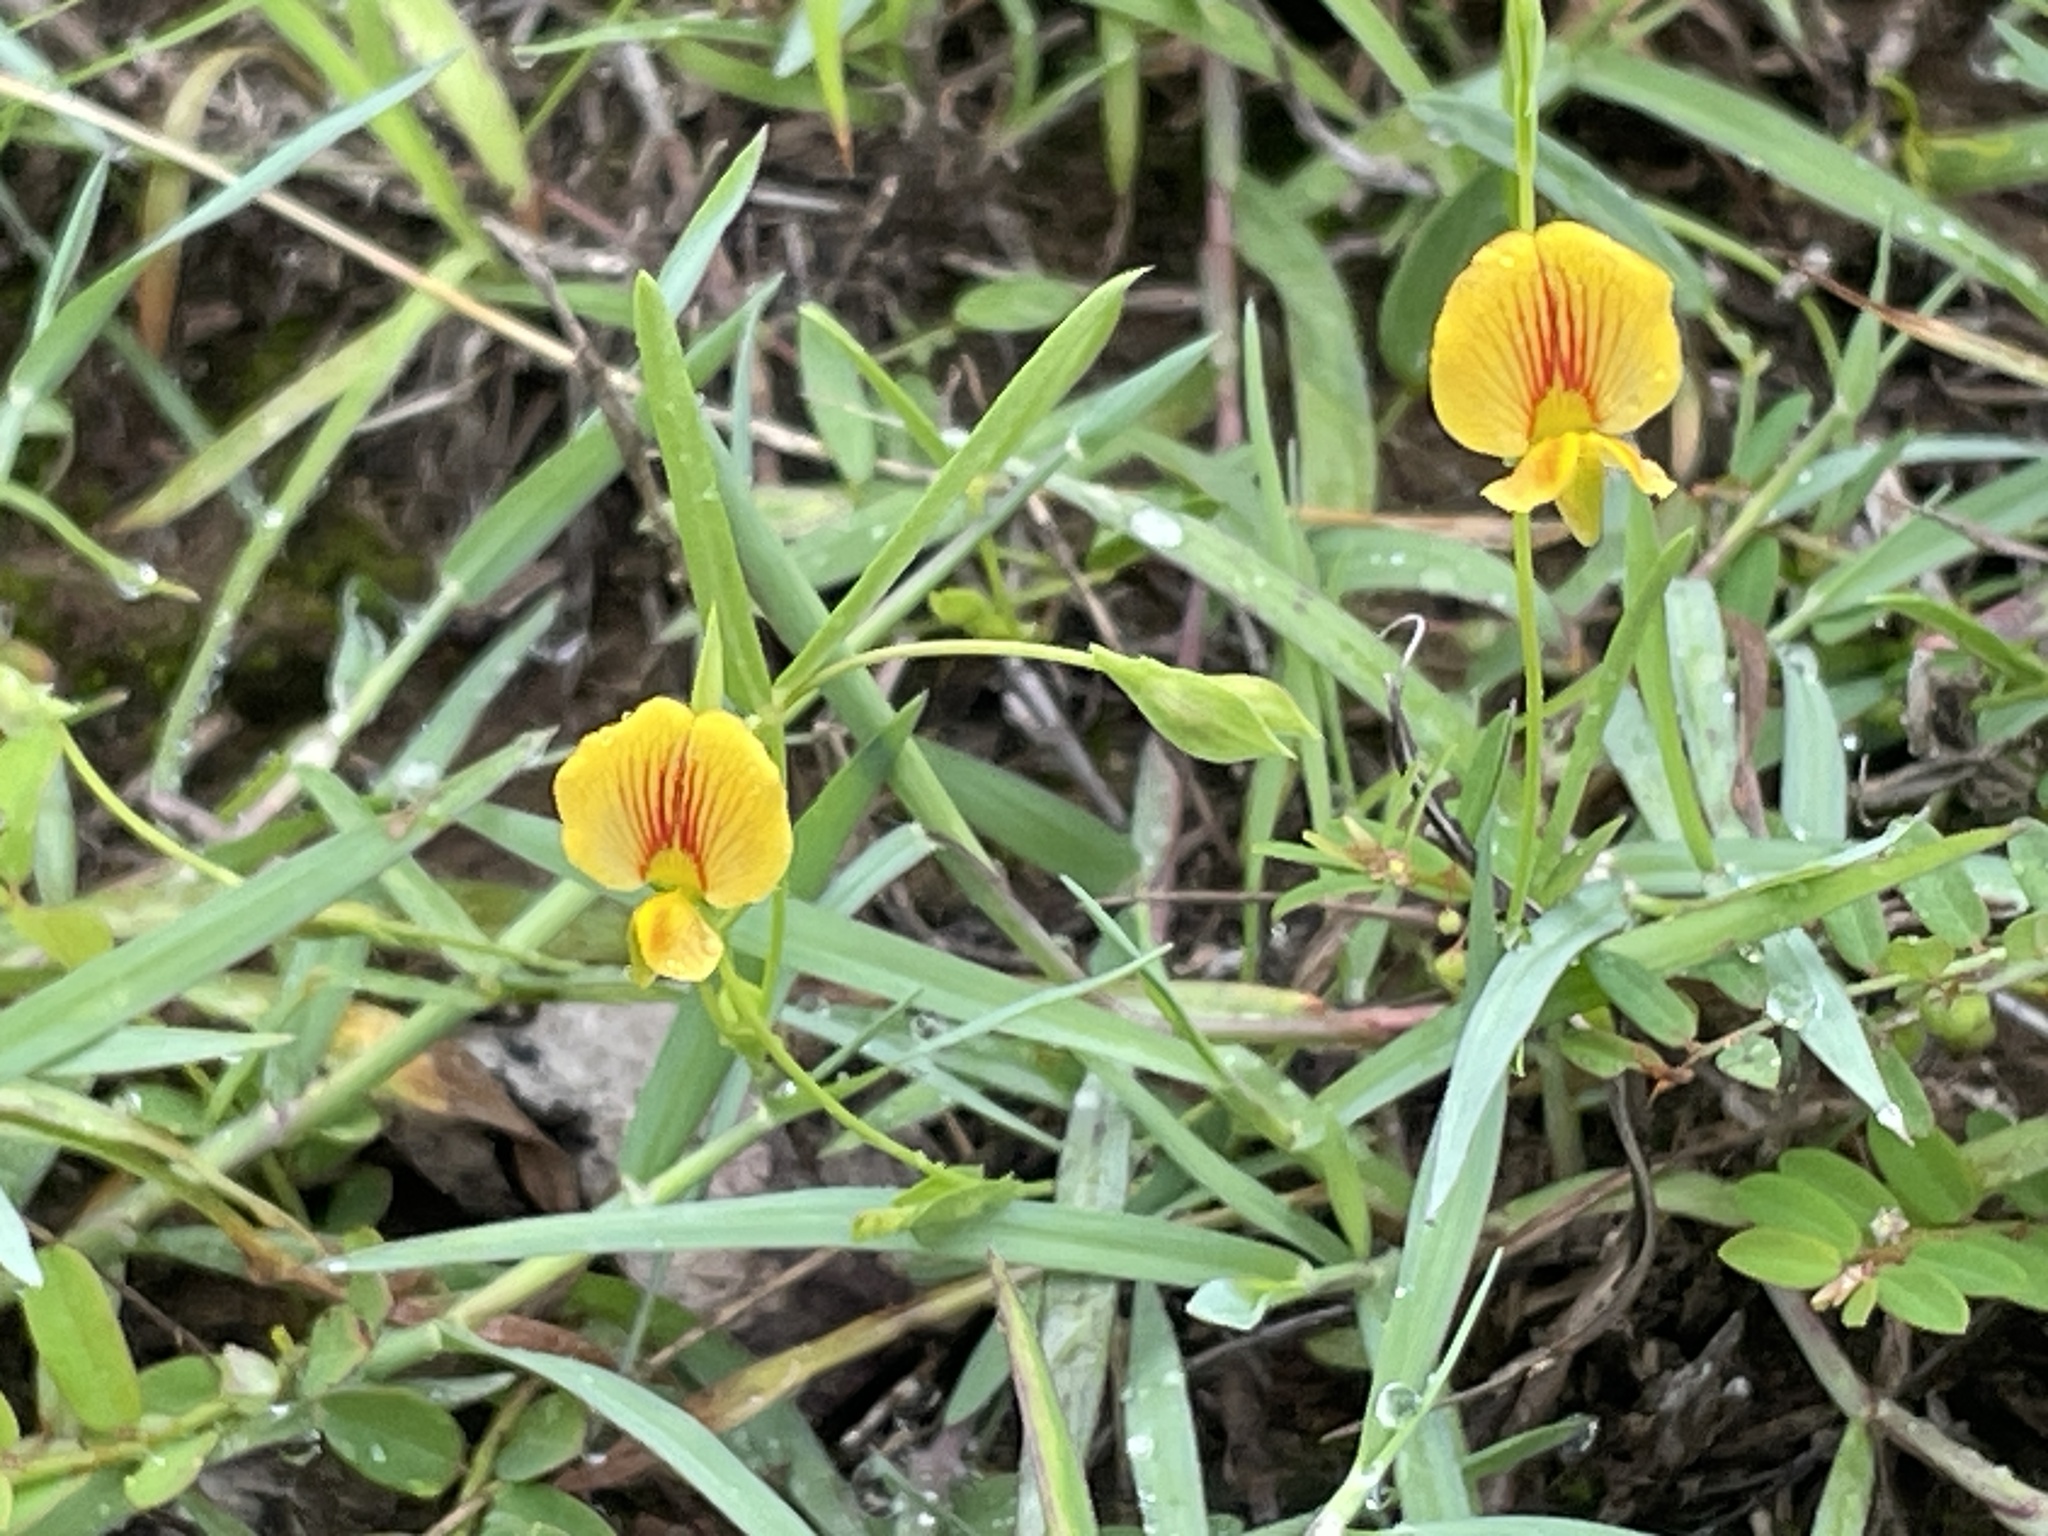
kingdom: Plantae
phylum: Tracheophyta
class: Magnoliopsida
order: Fabales
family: Fabaceae
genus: Zornia
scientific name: Zornia dyctiocarpa
